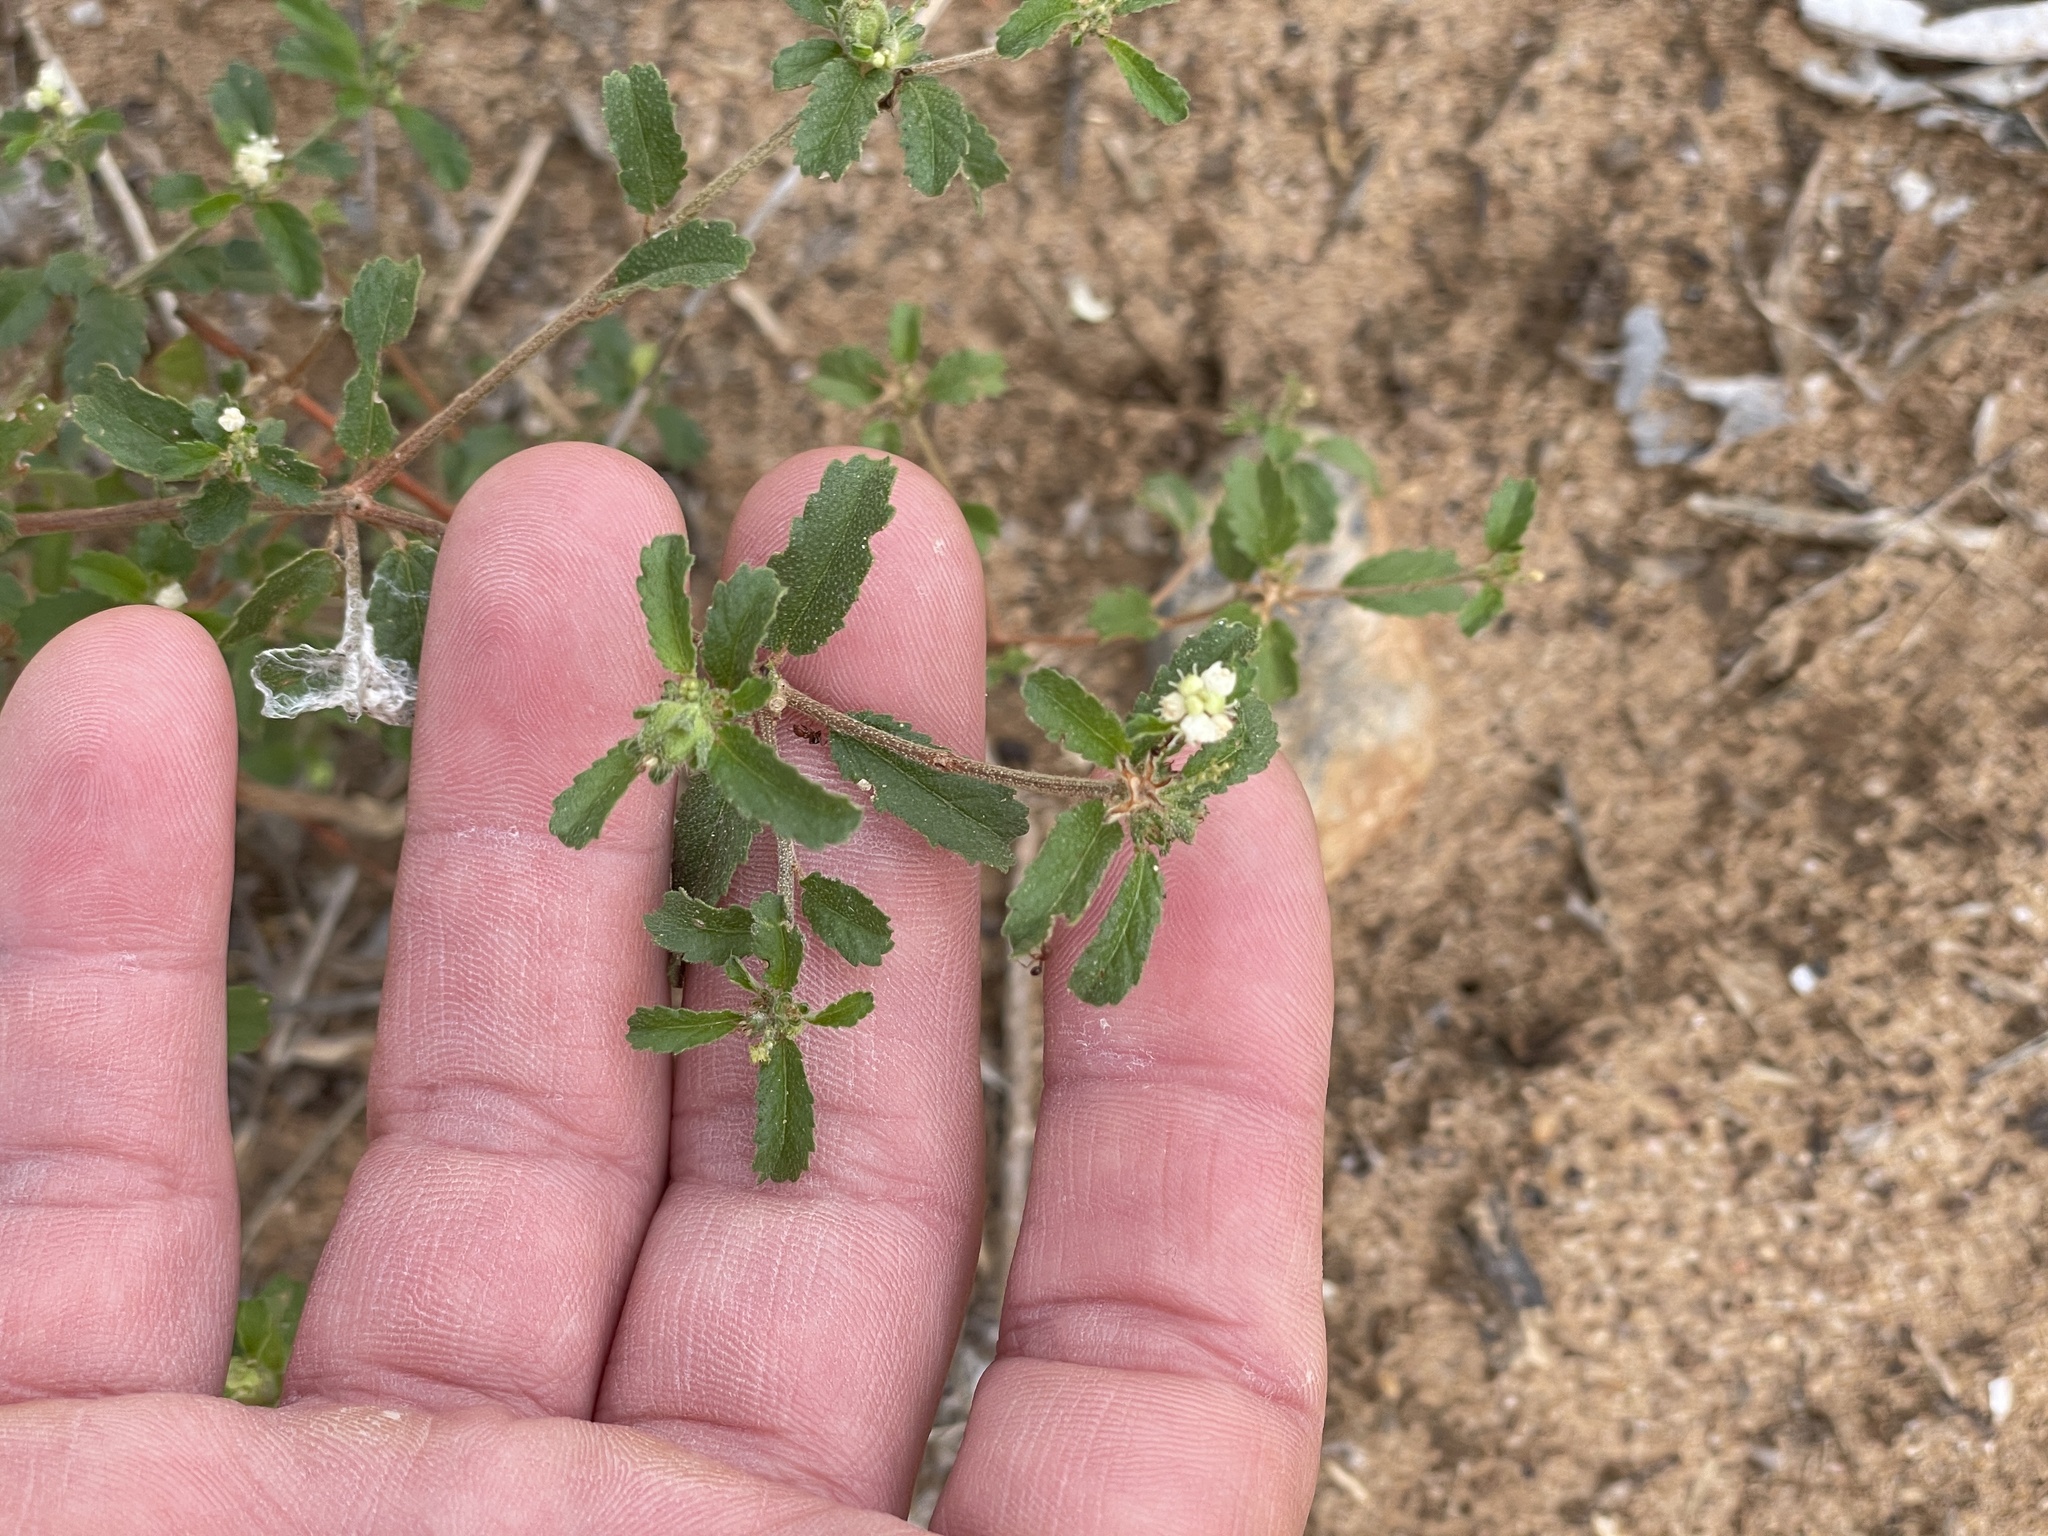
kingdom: Plantae
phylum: Tracheophyta
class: Magnoliopsida
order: Malpighiales
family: Euphorbiaceae
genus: Croton
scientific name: Croton glandulosus
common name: Tropic croton
